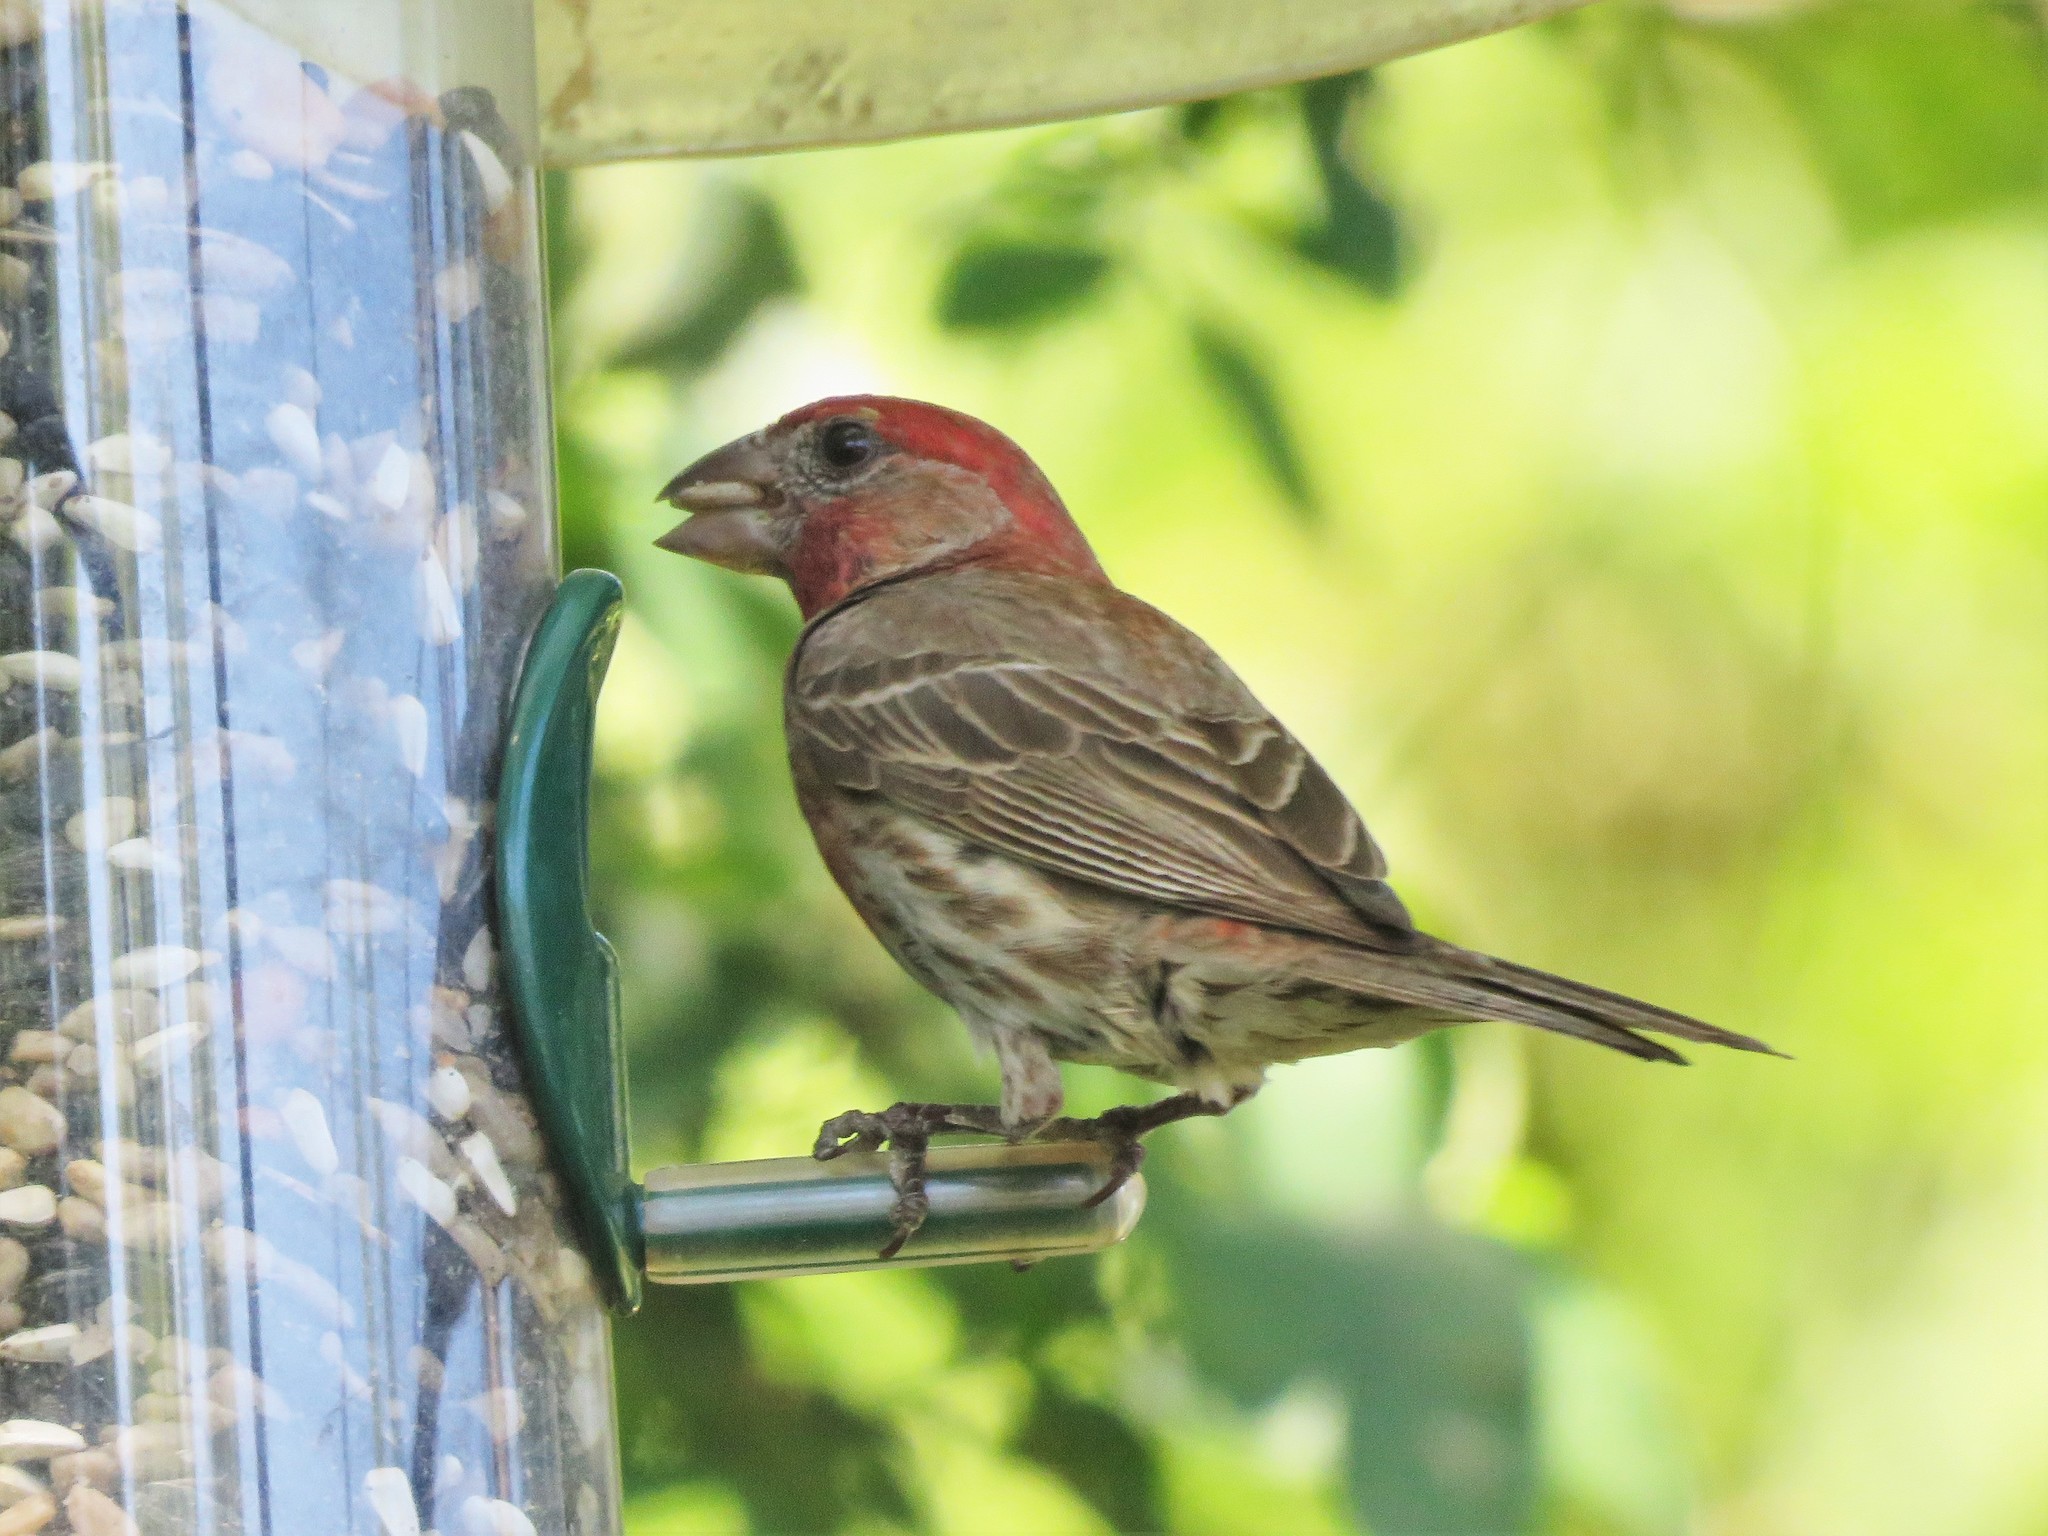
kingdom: Animalia
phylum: Chordata
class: Aves
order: Passeriformes
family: Fringillidae
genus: Haemorhous
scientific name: Haemorhous mexicanus
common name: House finch
